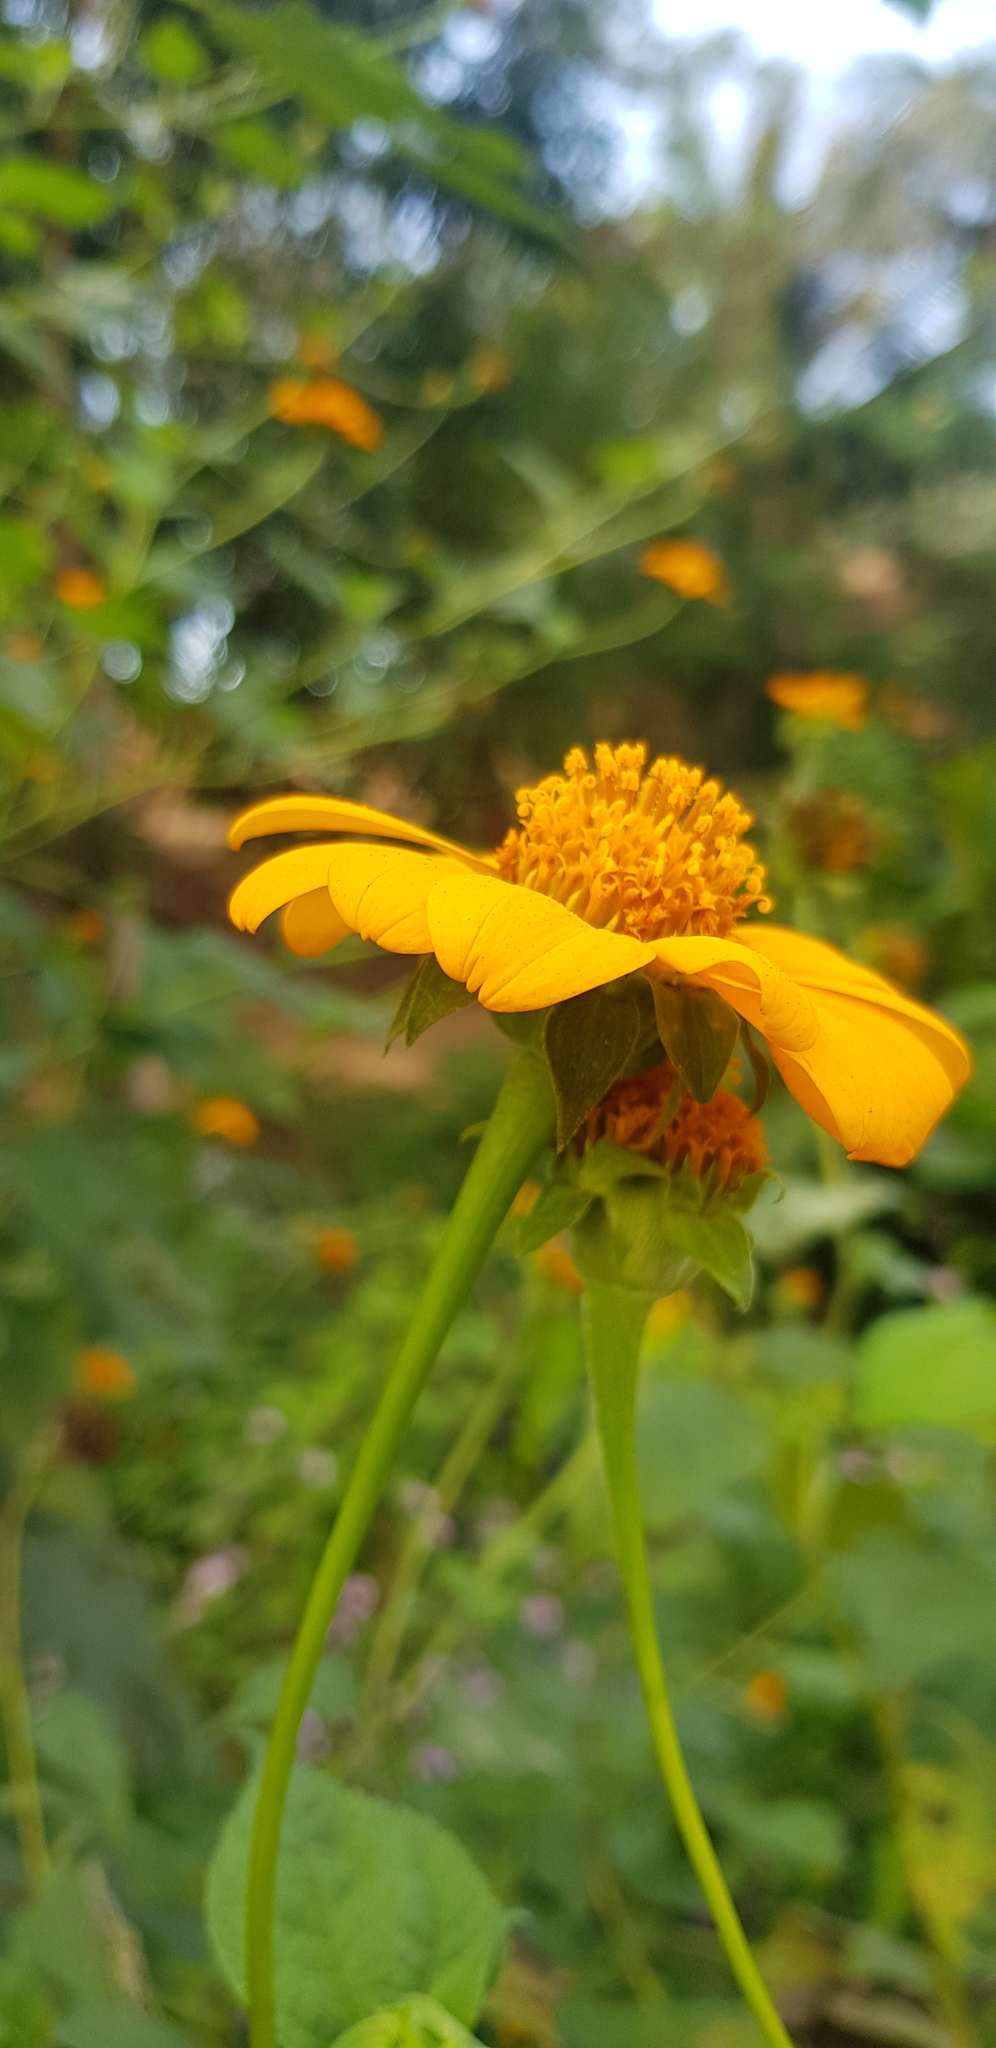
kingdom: Plantae
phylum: Tracheophyta
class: Magnoliopsida
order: Asterales
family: Asteraceae
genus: Tithonia
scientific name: Tithonia rotundifolia
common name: Sunflower
